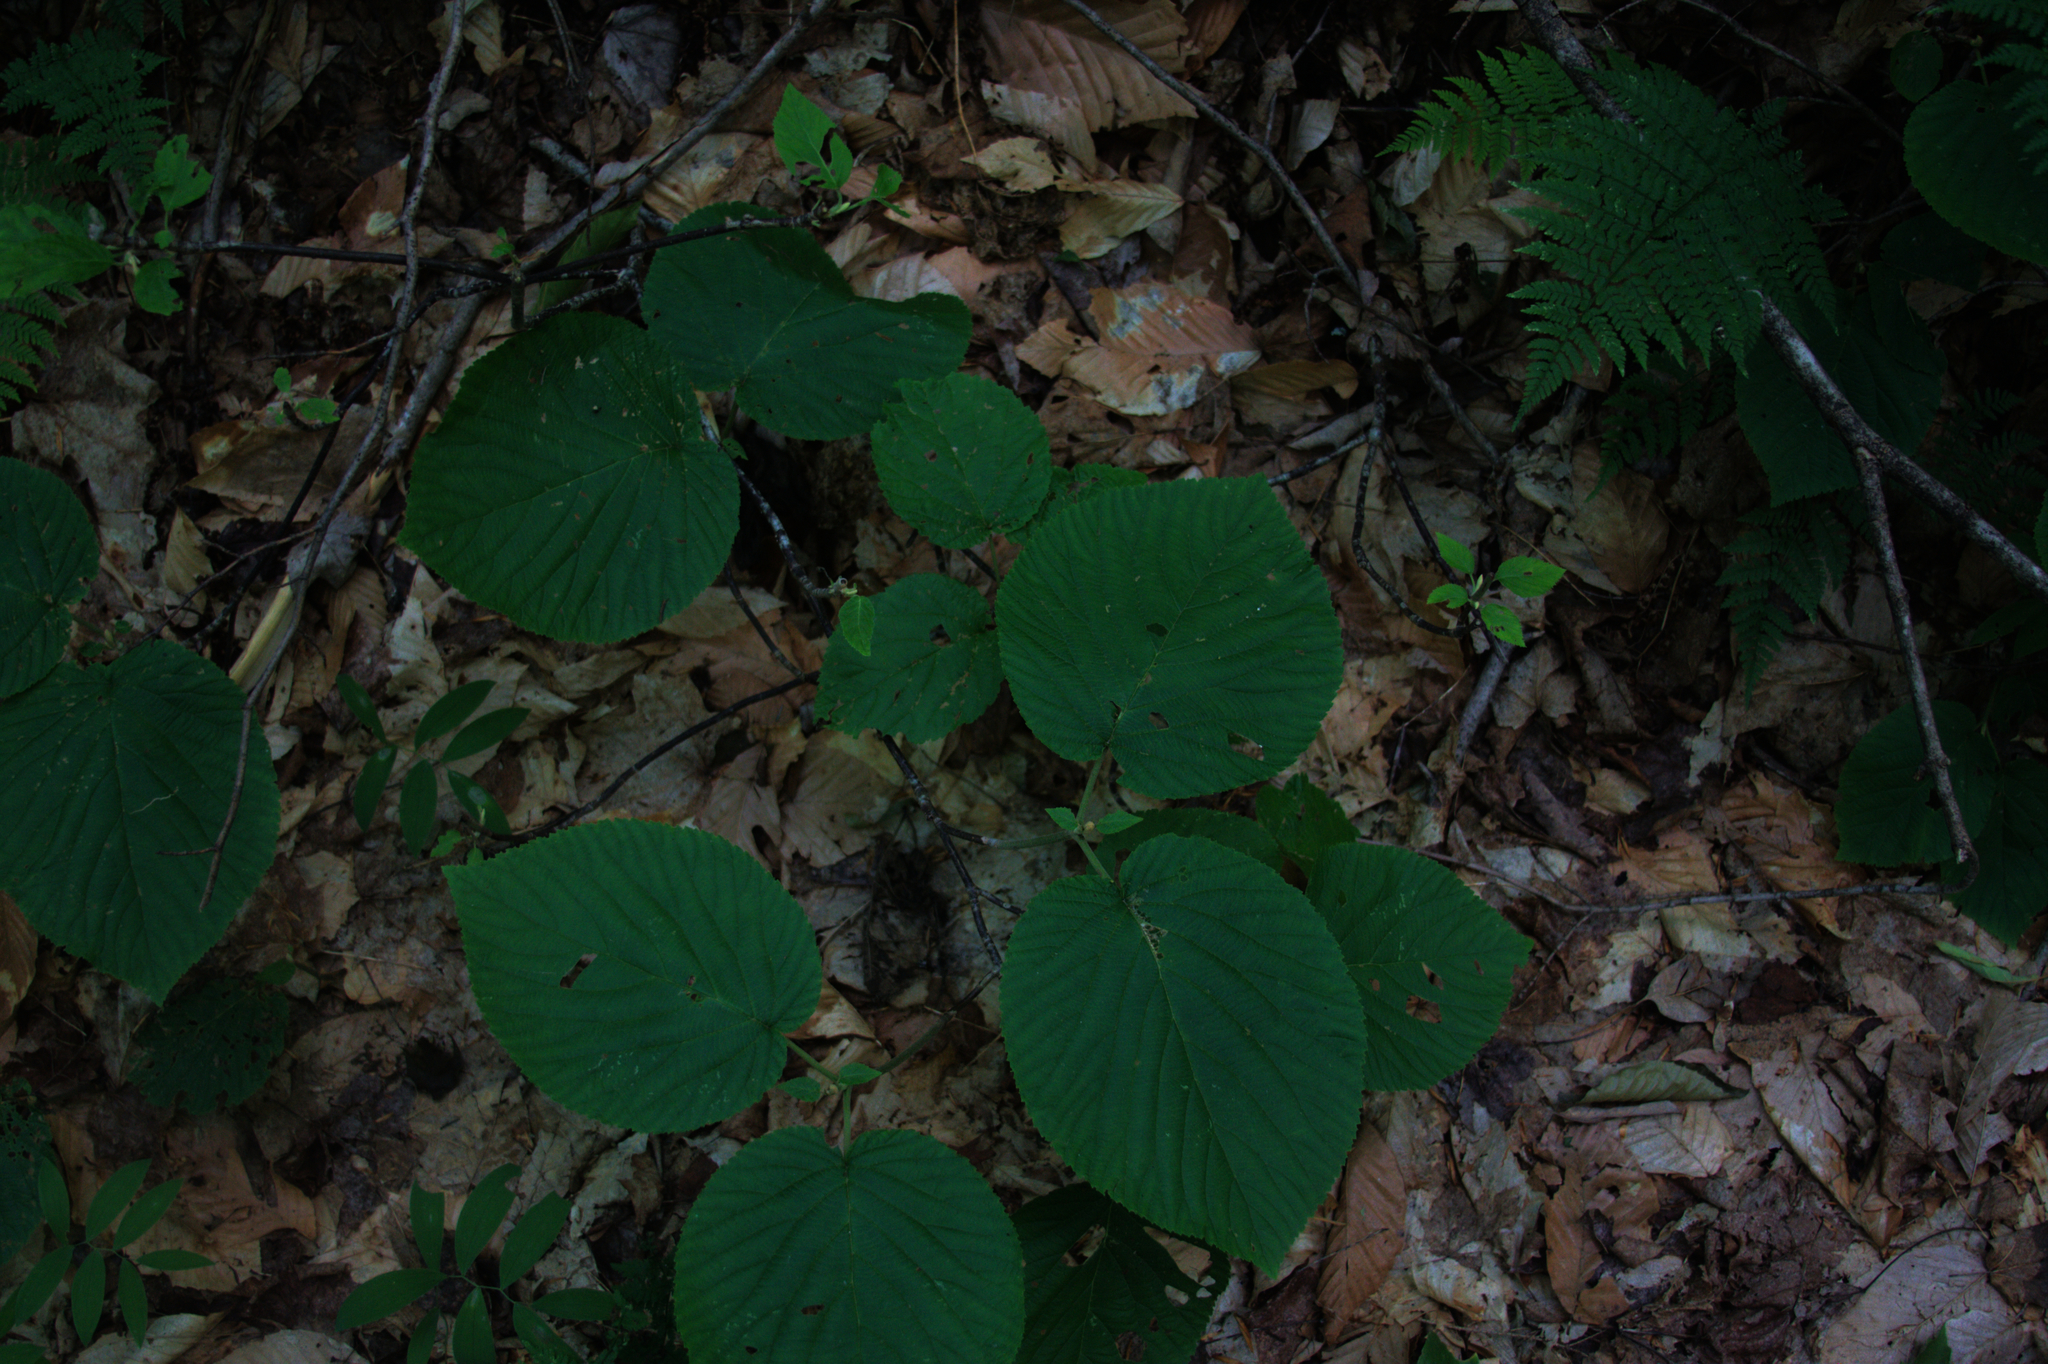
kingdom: Plantae
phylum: Tracheophyta
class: Magnoliopsida
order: Dipsacales
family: Viburnaceae
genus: Viburnum
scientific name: Viburnum lantanoides
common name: Hobblebush
